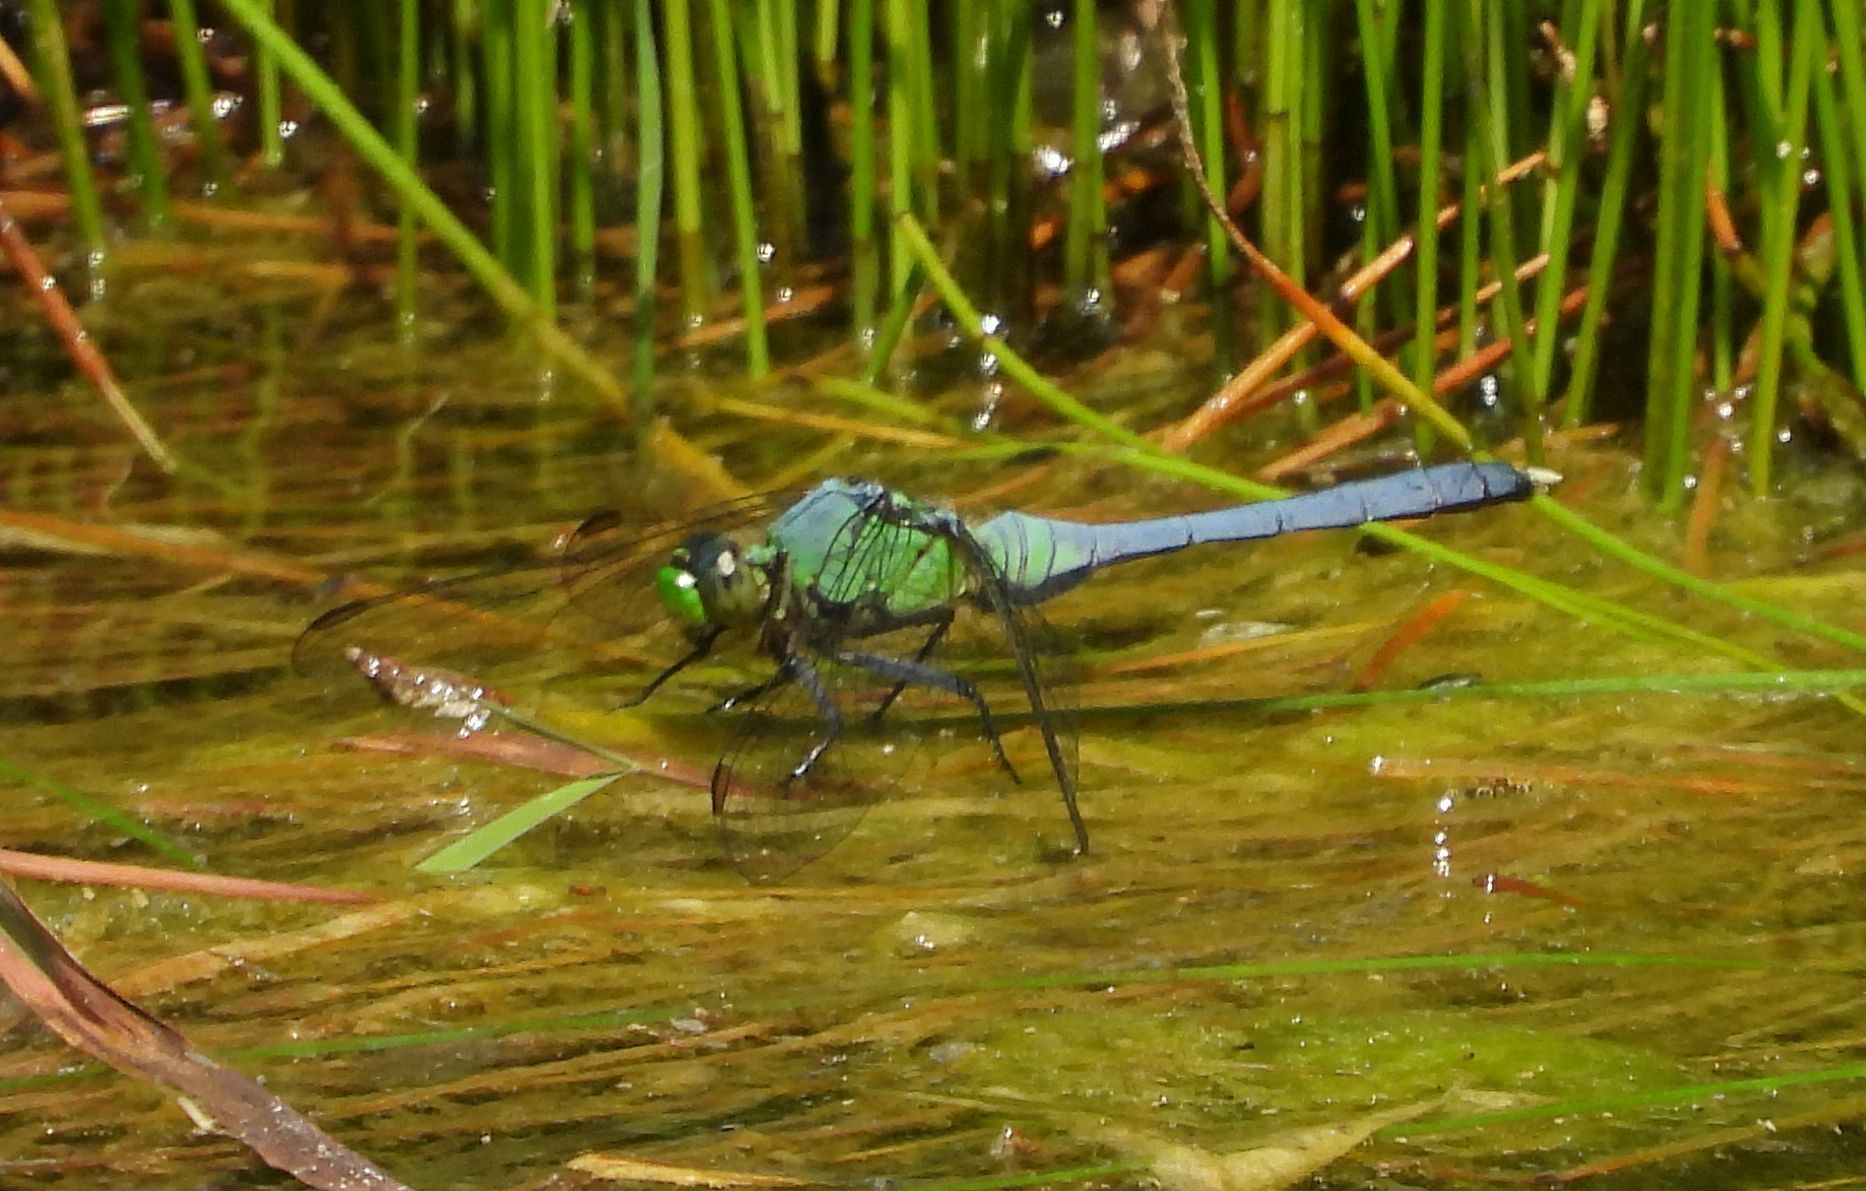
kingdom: Animalia
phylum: Arthropoda
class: Insecta
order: Odonata
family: Libellulidae
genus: Erythemis
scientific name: Erythemis simplicicollis
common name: Eastern pondhawk
